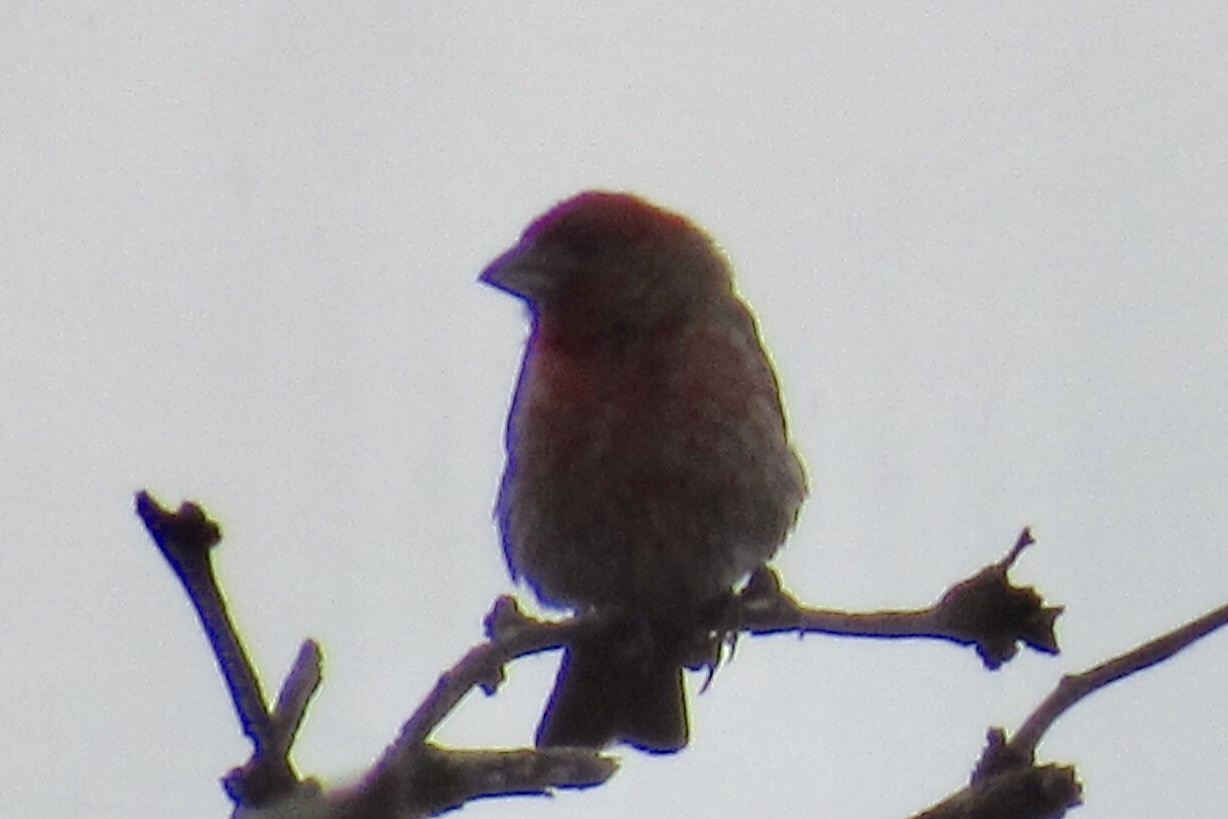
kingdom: Animalia
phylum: Chordata
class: Aves
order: Passeriformes
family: Fringillidae
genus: Haemorhous
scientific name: Haemorhous mexicanus
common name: House finch
